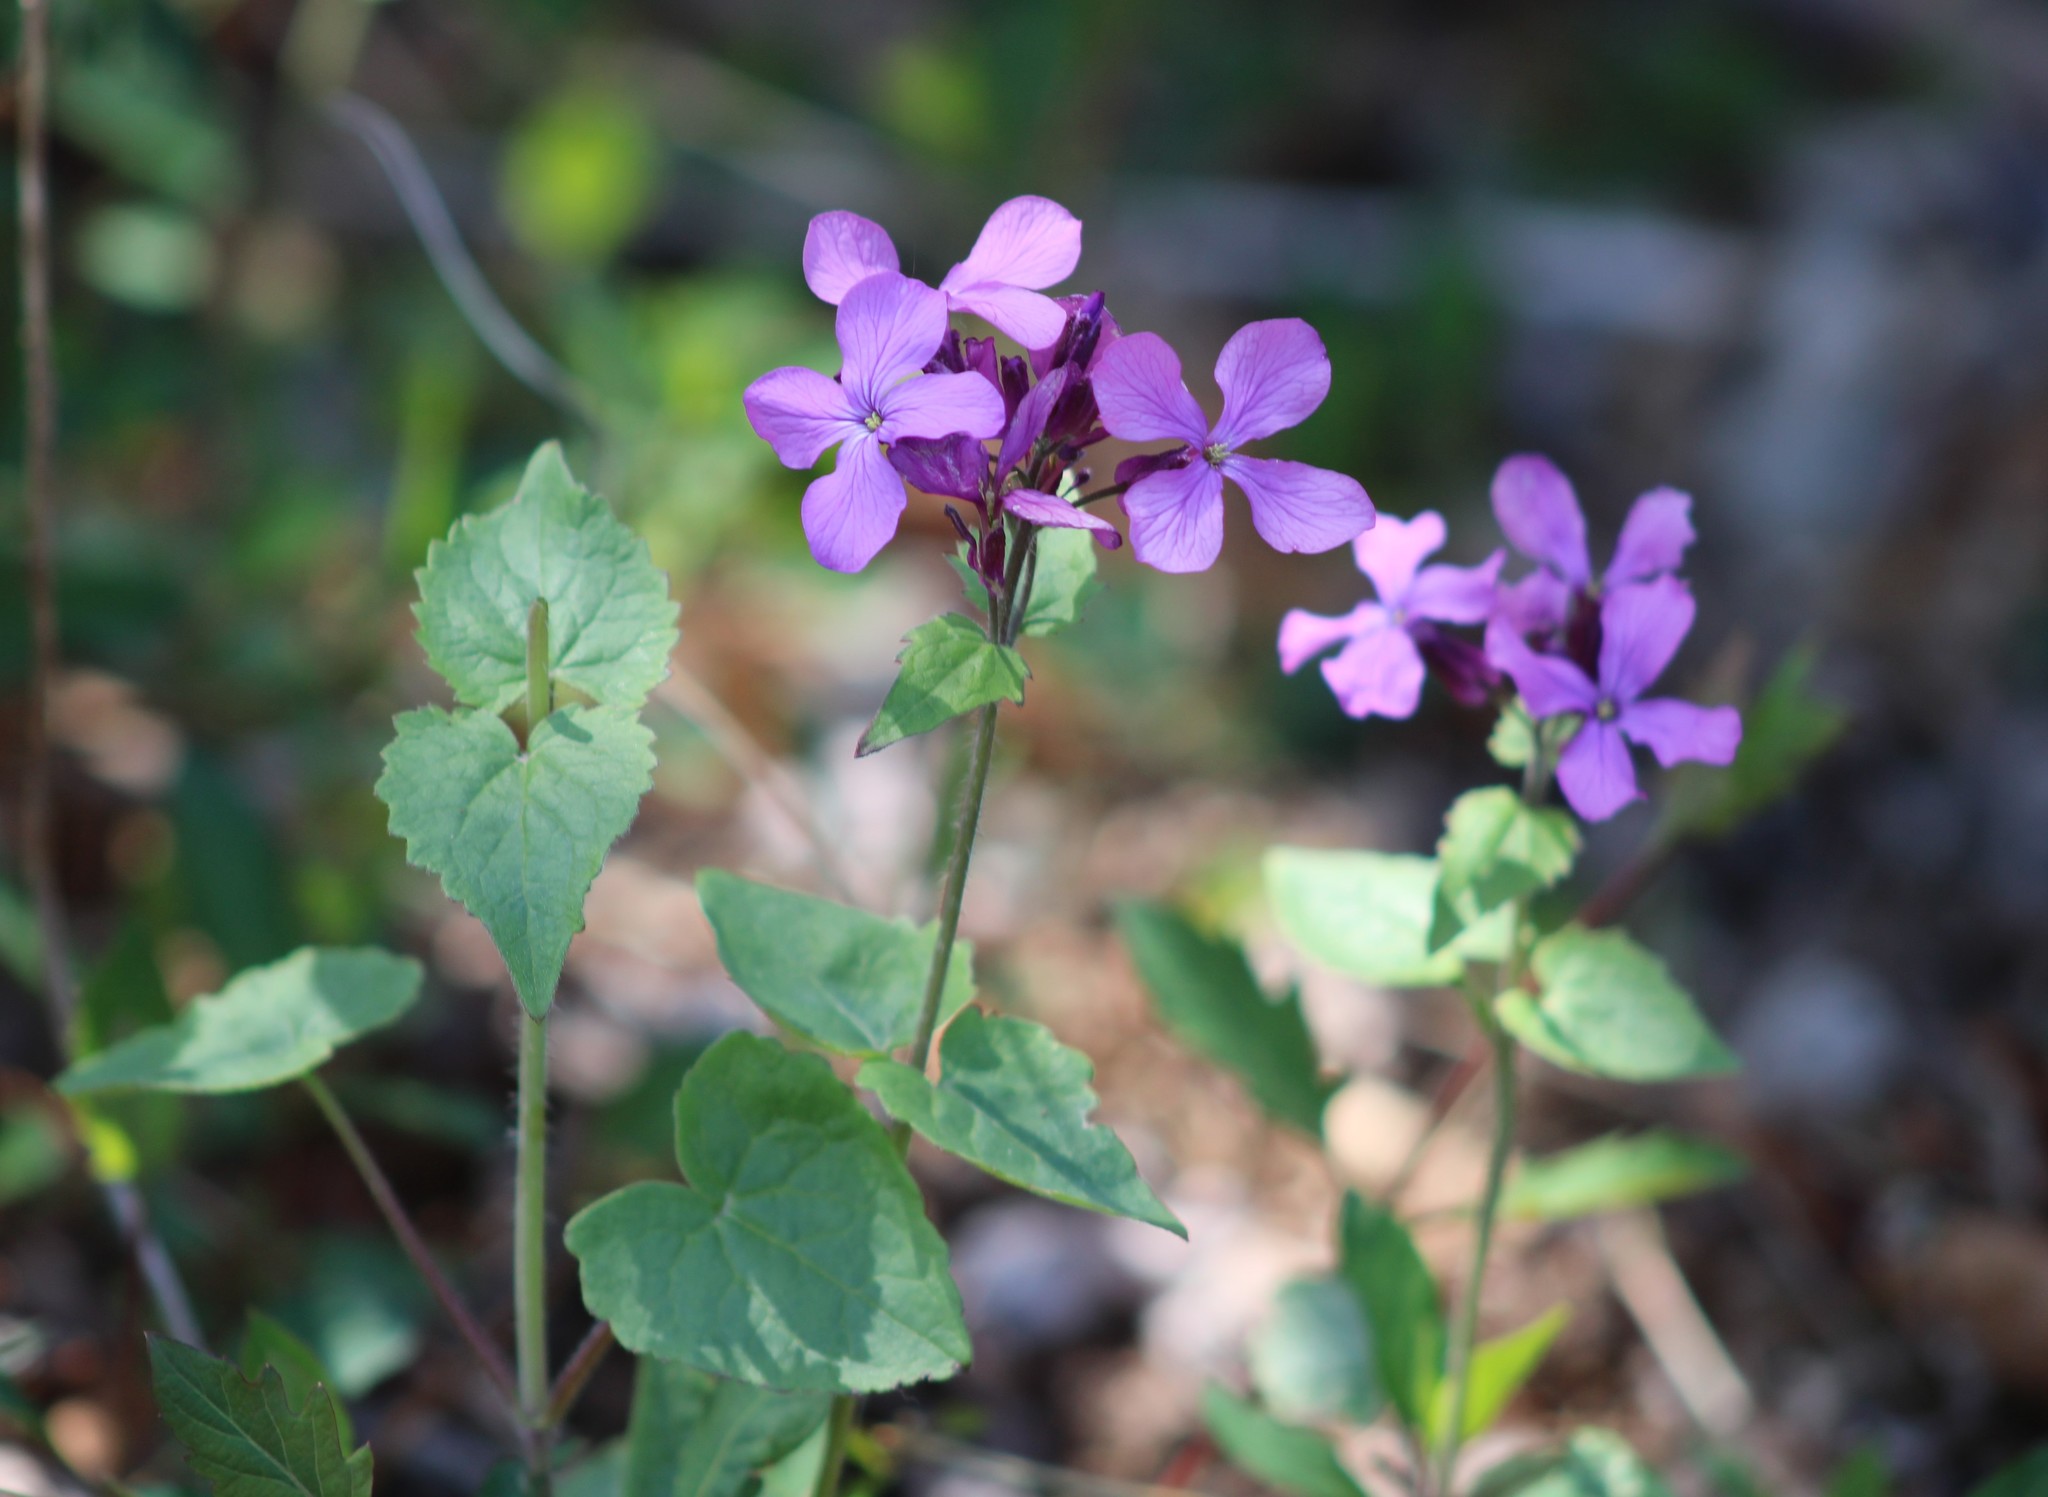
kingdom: Plantae
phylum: Tracheophyta
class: Magnoliopsida
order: Brassicales
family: Brassicaceae
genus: Lunaria
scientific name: Lunaria annua
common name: Honesty
